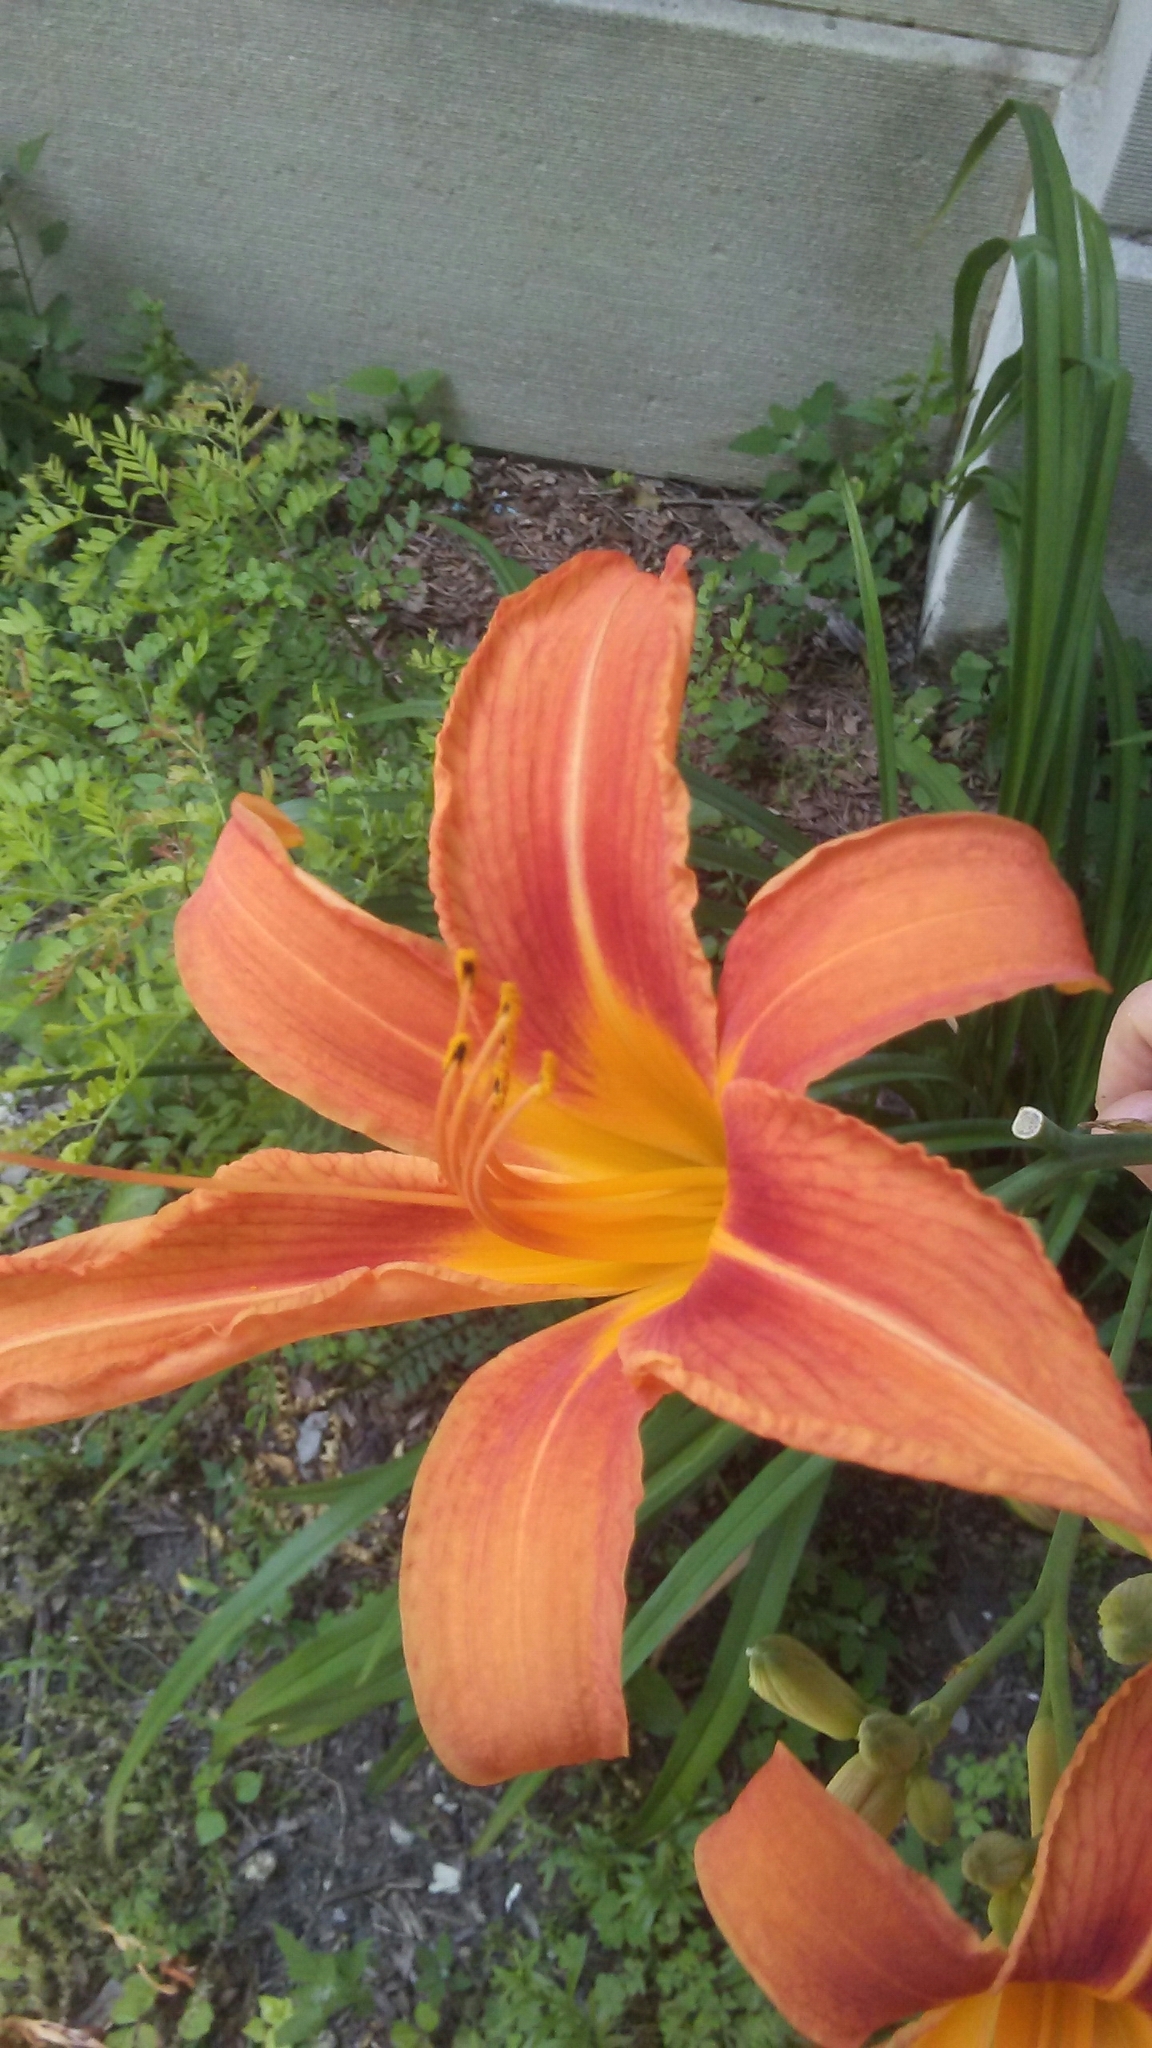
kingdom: Plantae
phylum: Tracheophyta
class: Liliopsida
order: Asparagales
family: Asphodelaceae
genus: Hemerocallis
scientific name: Hemerocallis fulva
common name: Orange day-lily
